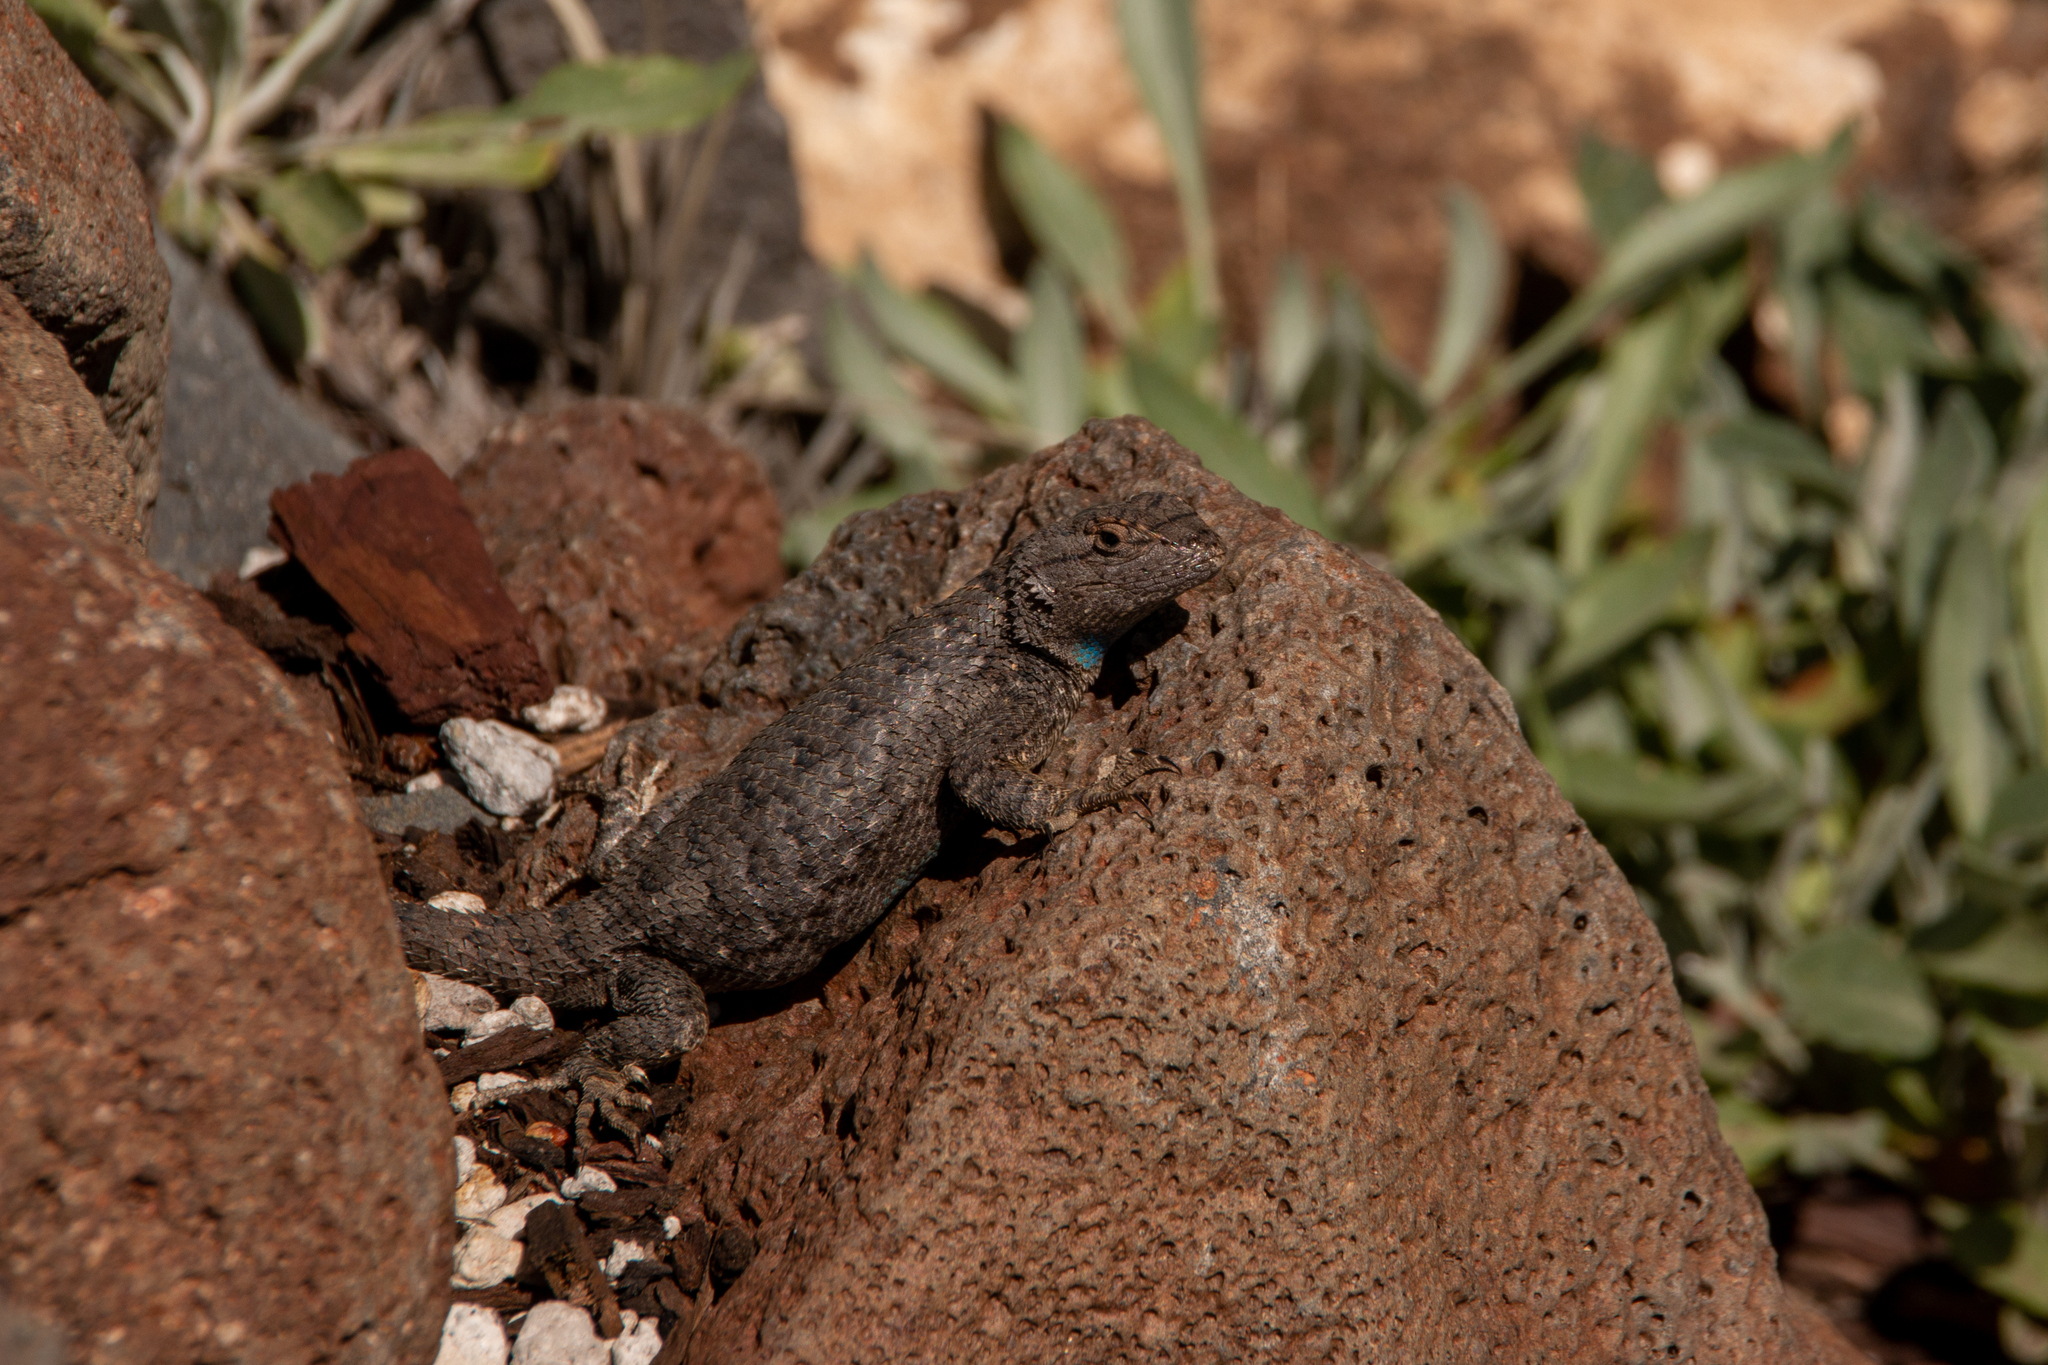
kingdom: Animalia
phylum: Chordata
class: Squamata
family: Phrynosomatidae
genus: Sceloporus
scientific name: Sceloporus occidentalis
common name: Western fence lizard
